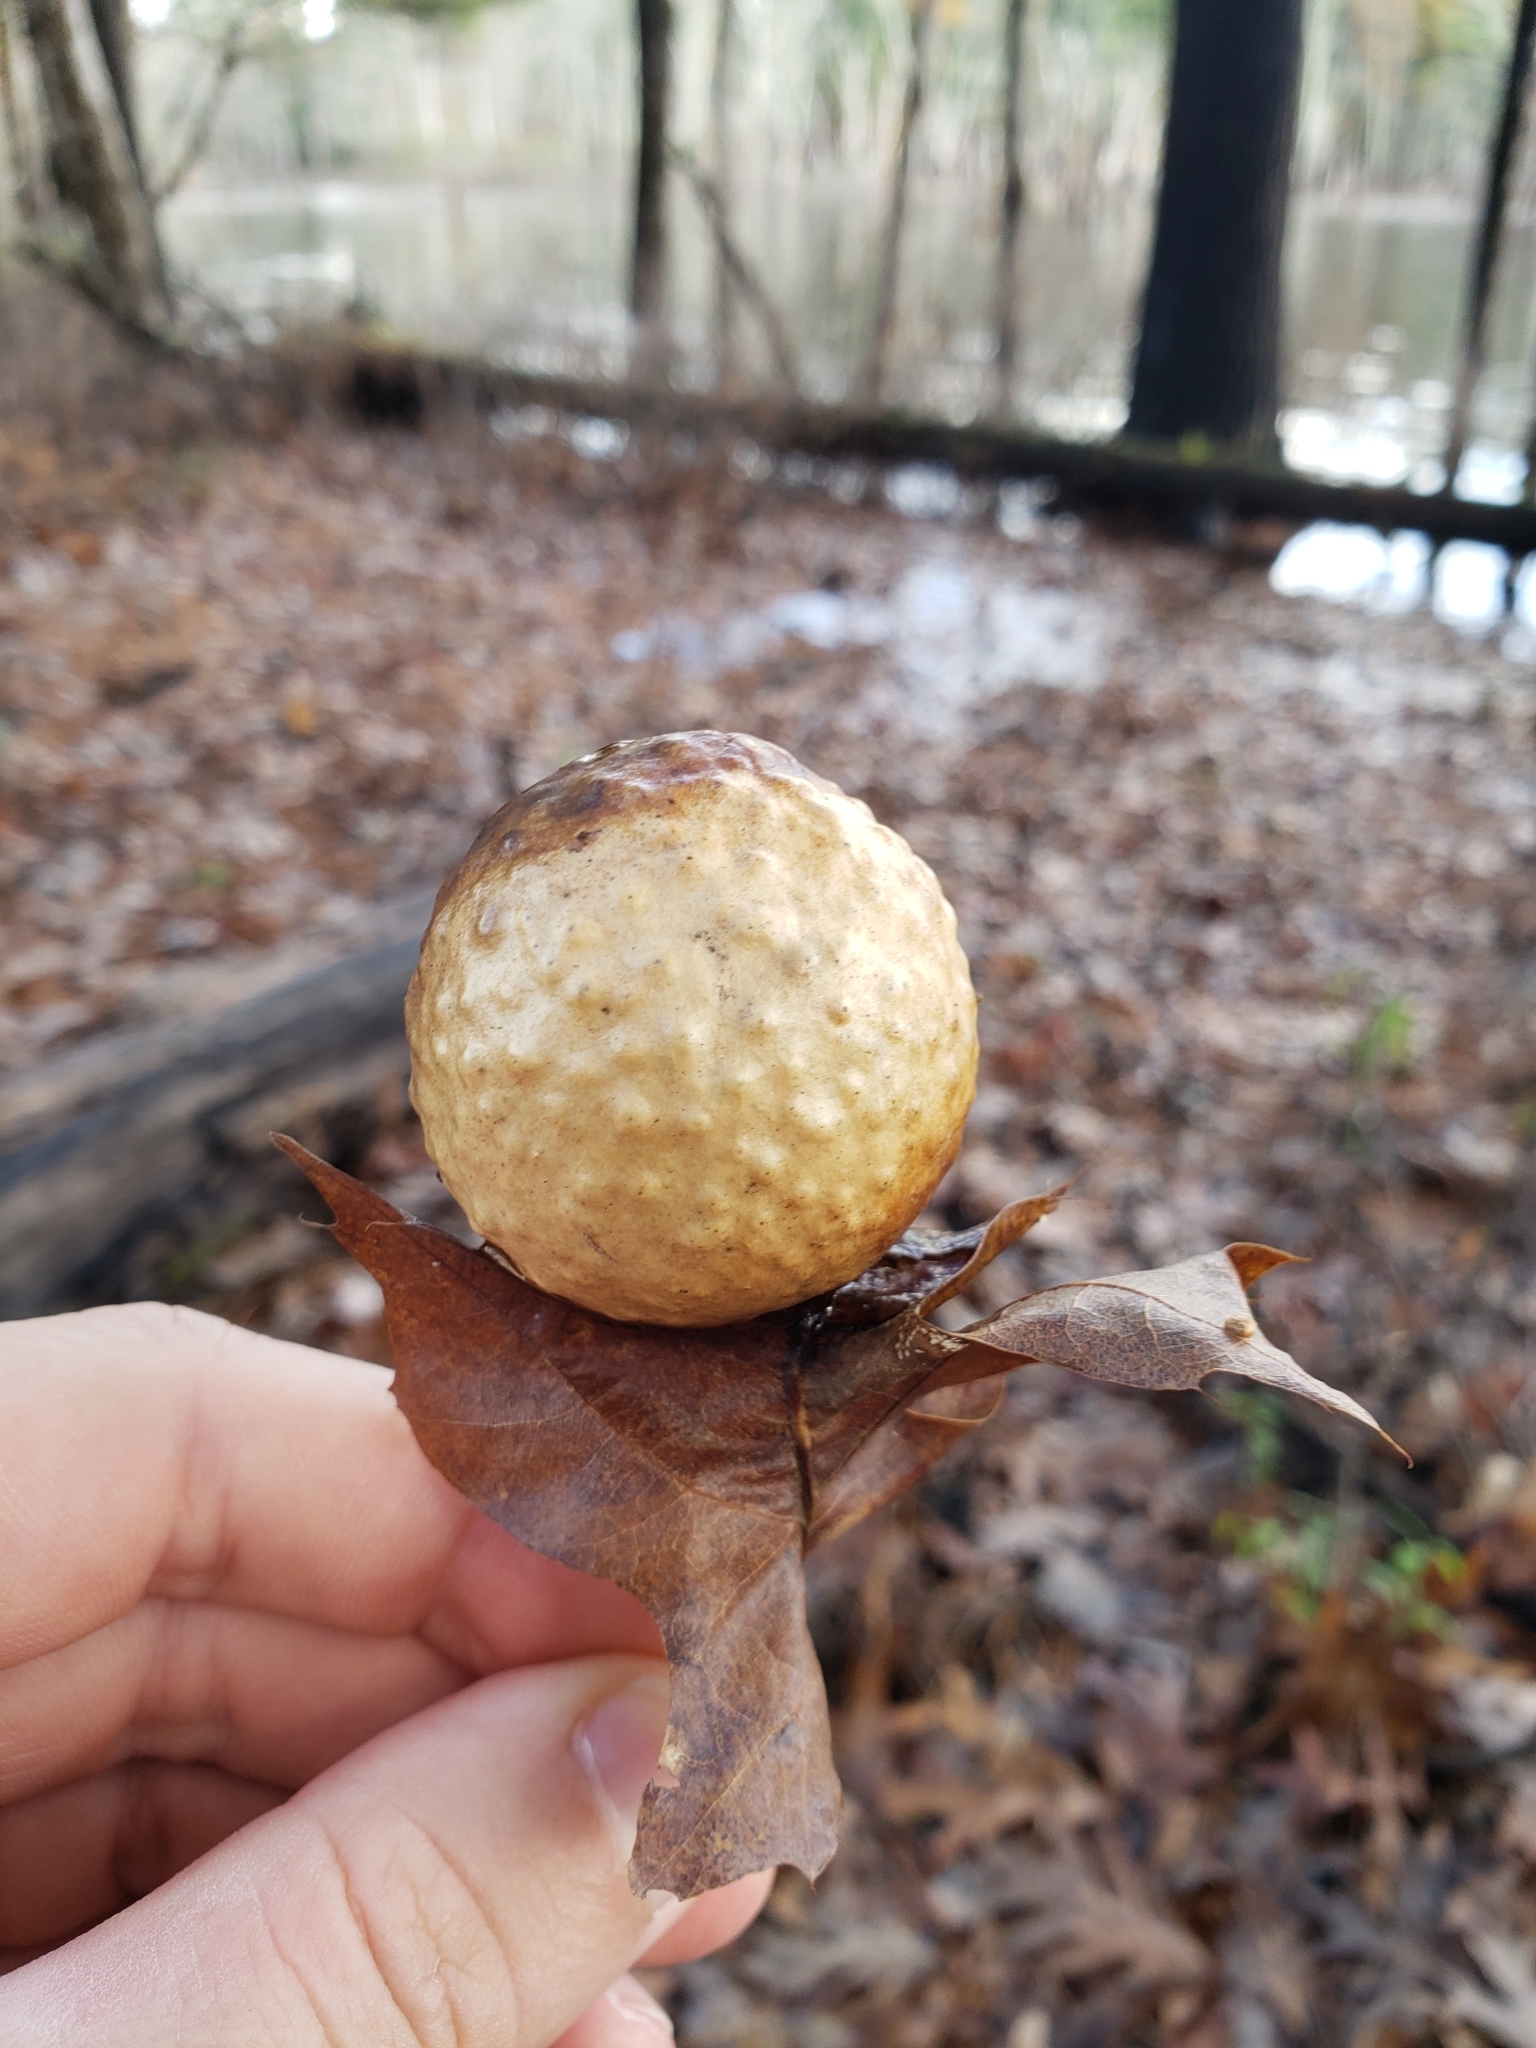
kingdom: Animalia
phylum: Arthropoda
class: Insecta
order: Hymenoptera
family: Cynipidae
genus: Amphibolips
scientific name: Amphibolips
